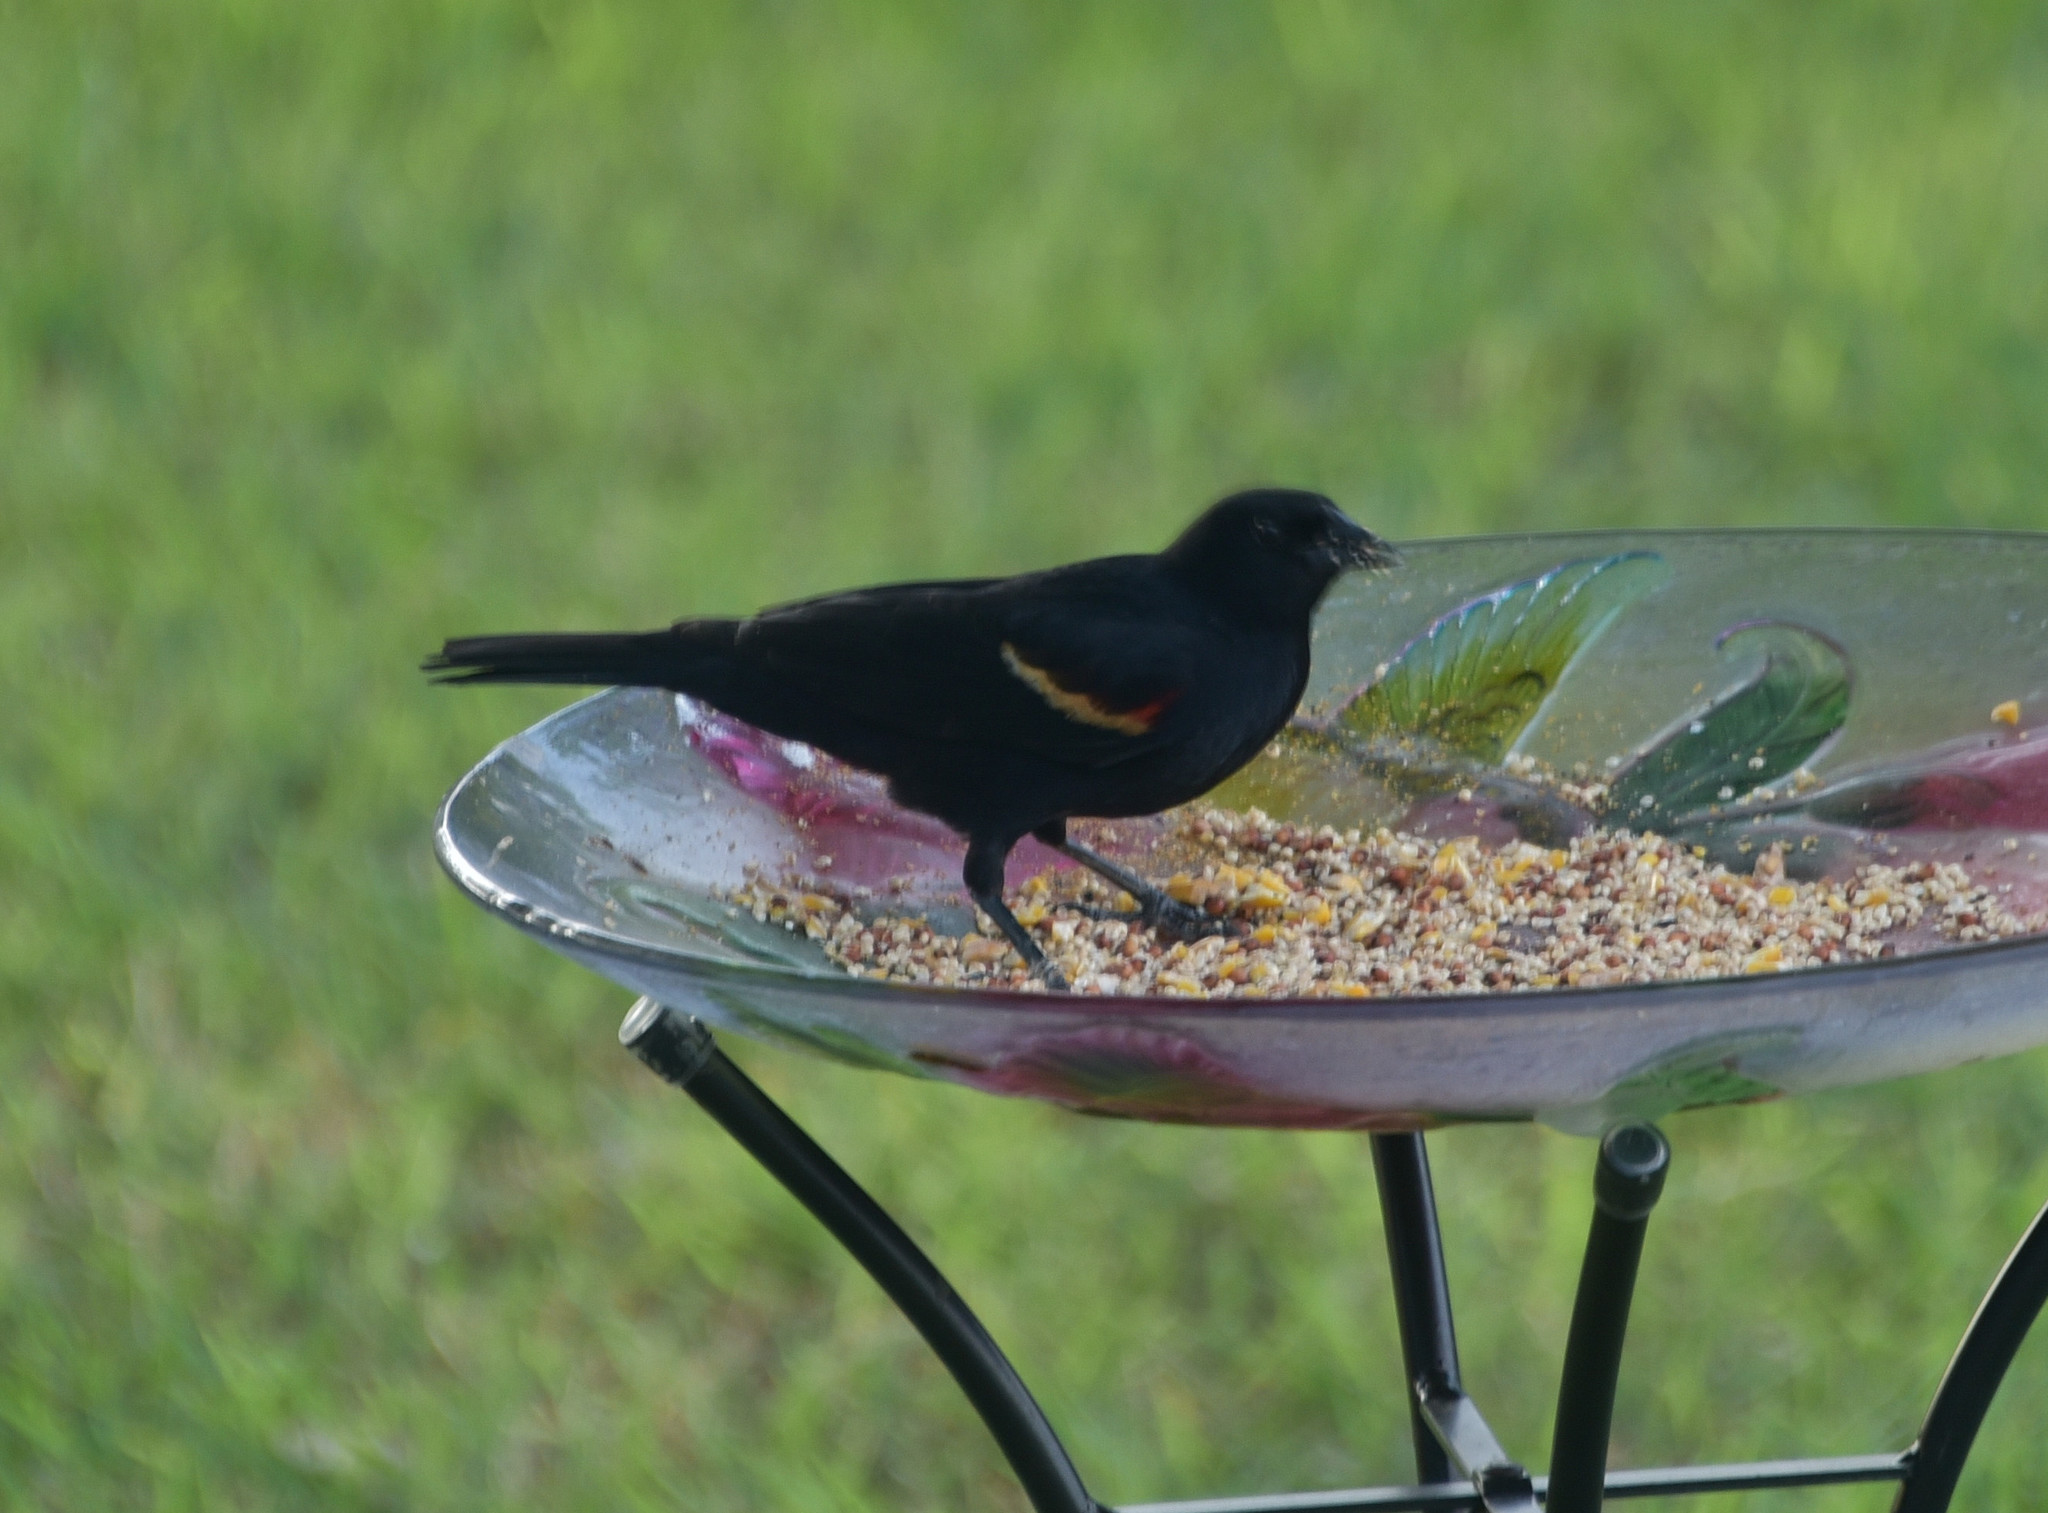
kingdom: Animalia
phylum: Chordata
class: Aves
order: Passeriformes
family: Icteridae
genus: Agelaius
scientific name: Agelaius phoeniceus
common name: Red-winged blackbird
